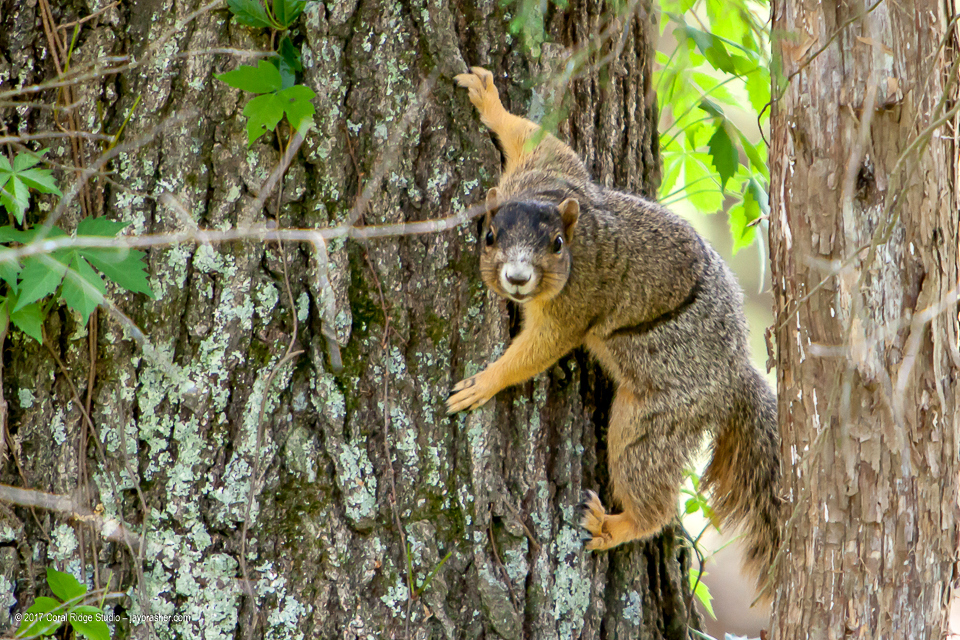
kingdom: Animalia
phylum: Chordata
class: Mammalia
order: Rodentia
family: Sciuridae
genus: Sciurus
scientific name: Sciurus niger
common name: Fox squirrel
